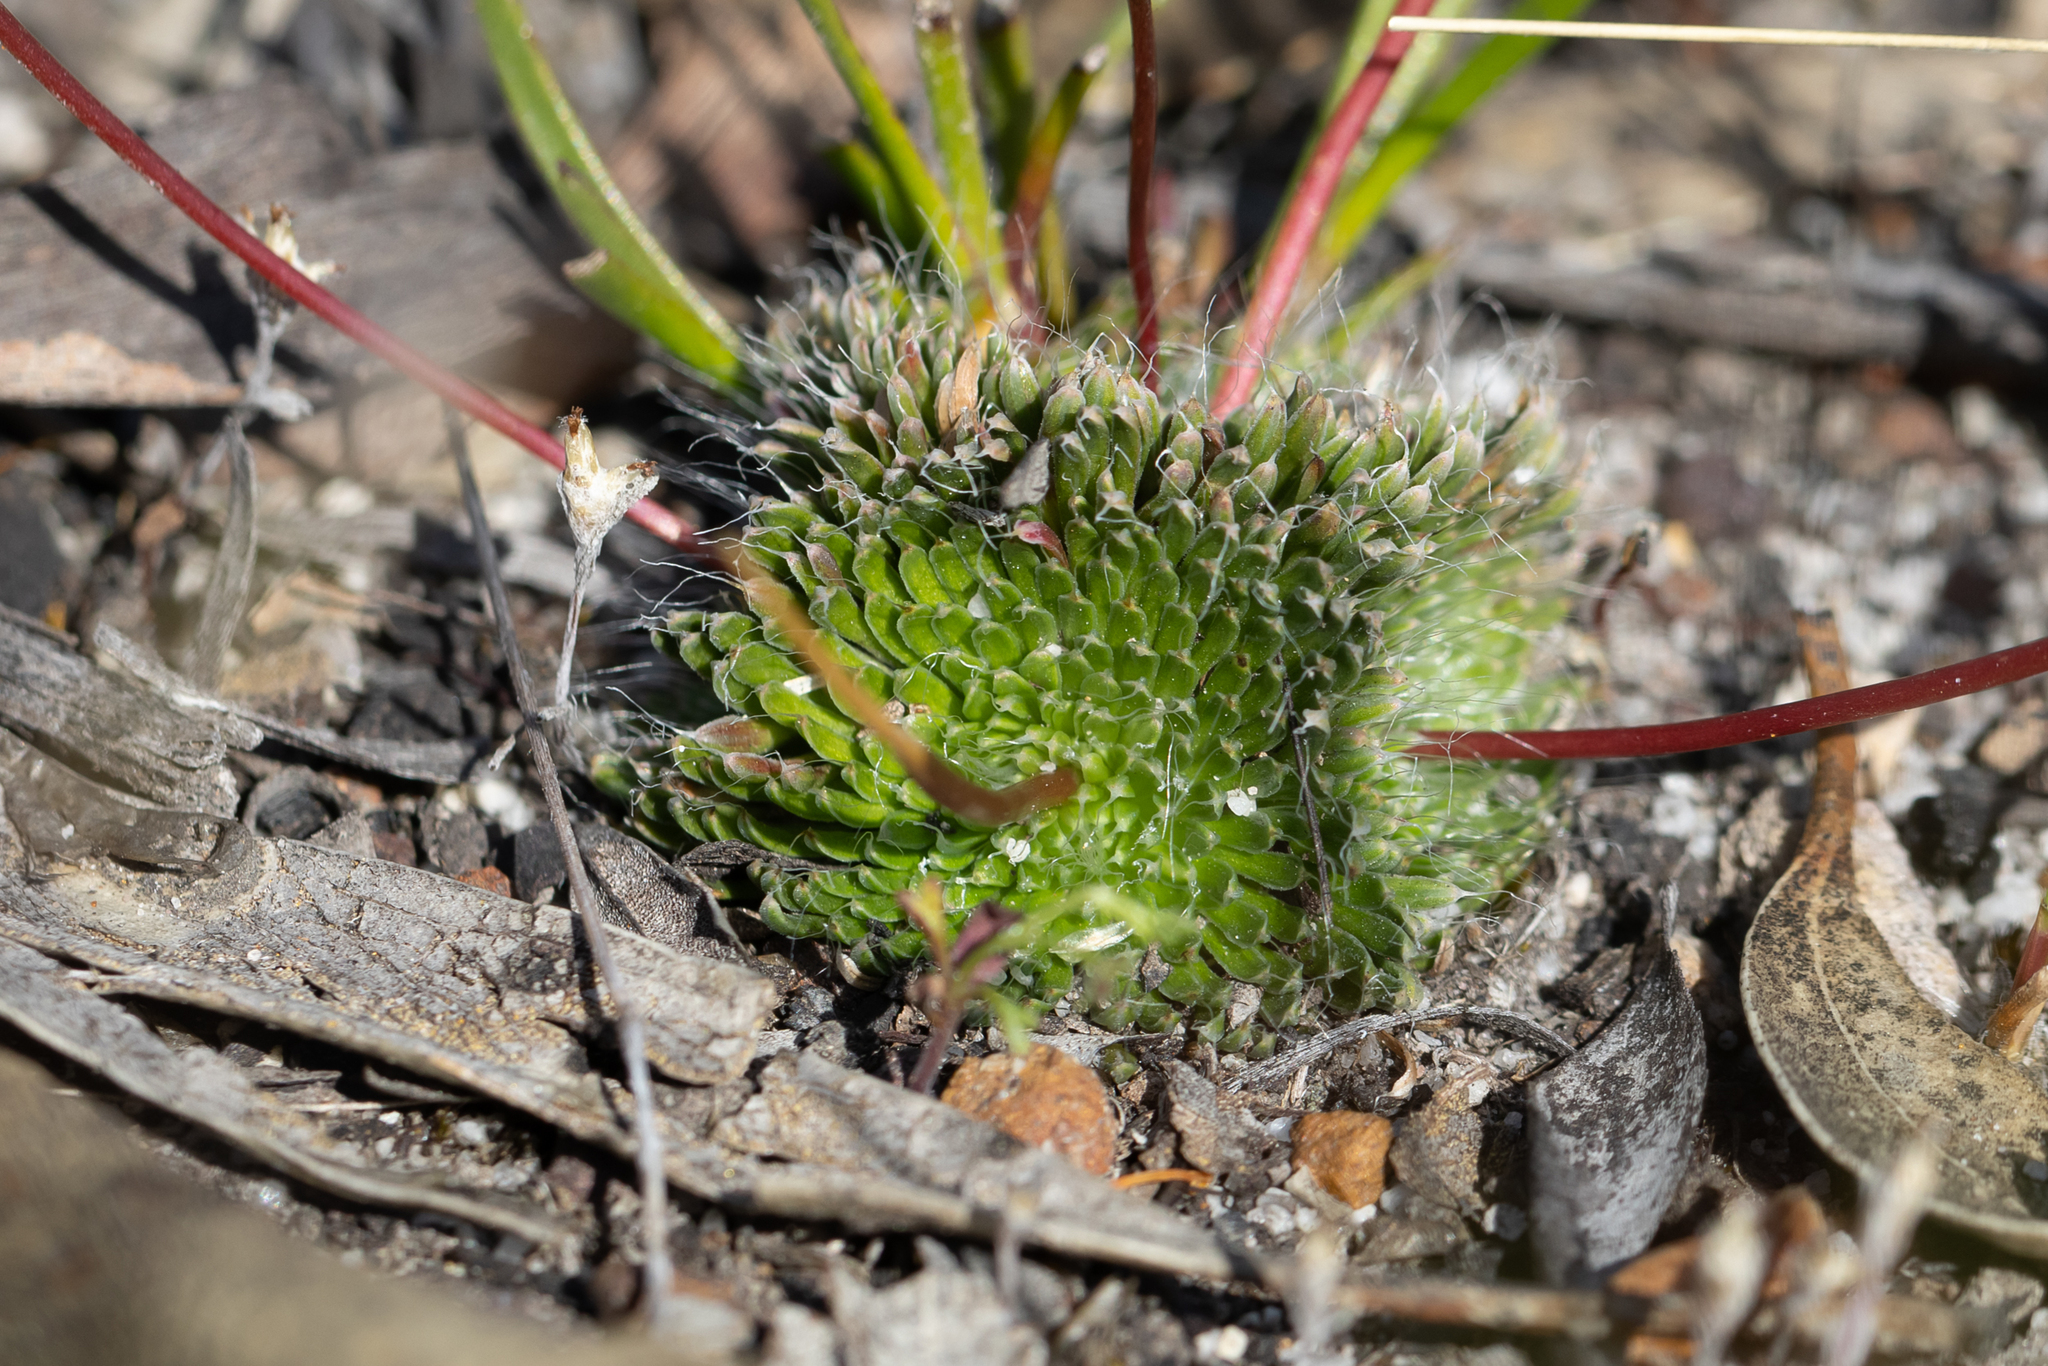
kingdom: Plantae
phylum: Tracheophyta
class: Magnoliopsida
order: Asterales
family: Stylidiaceae
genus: Stylidium
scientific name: Stylidium piliferum
